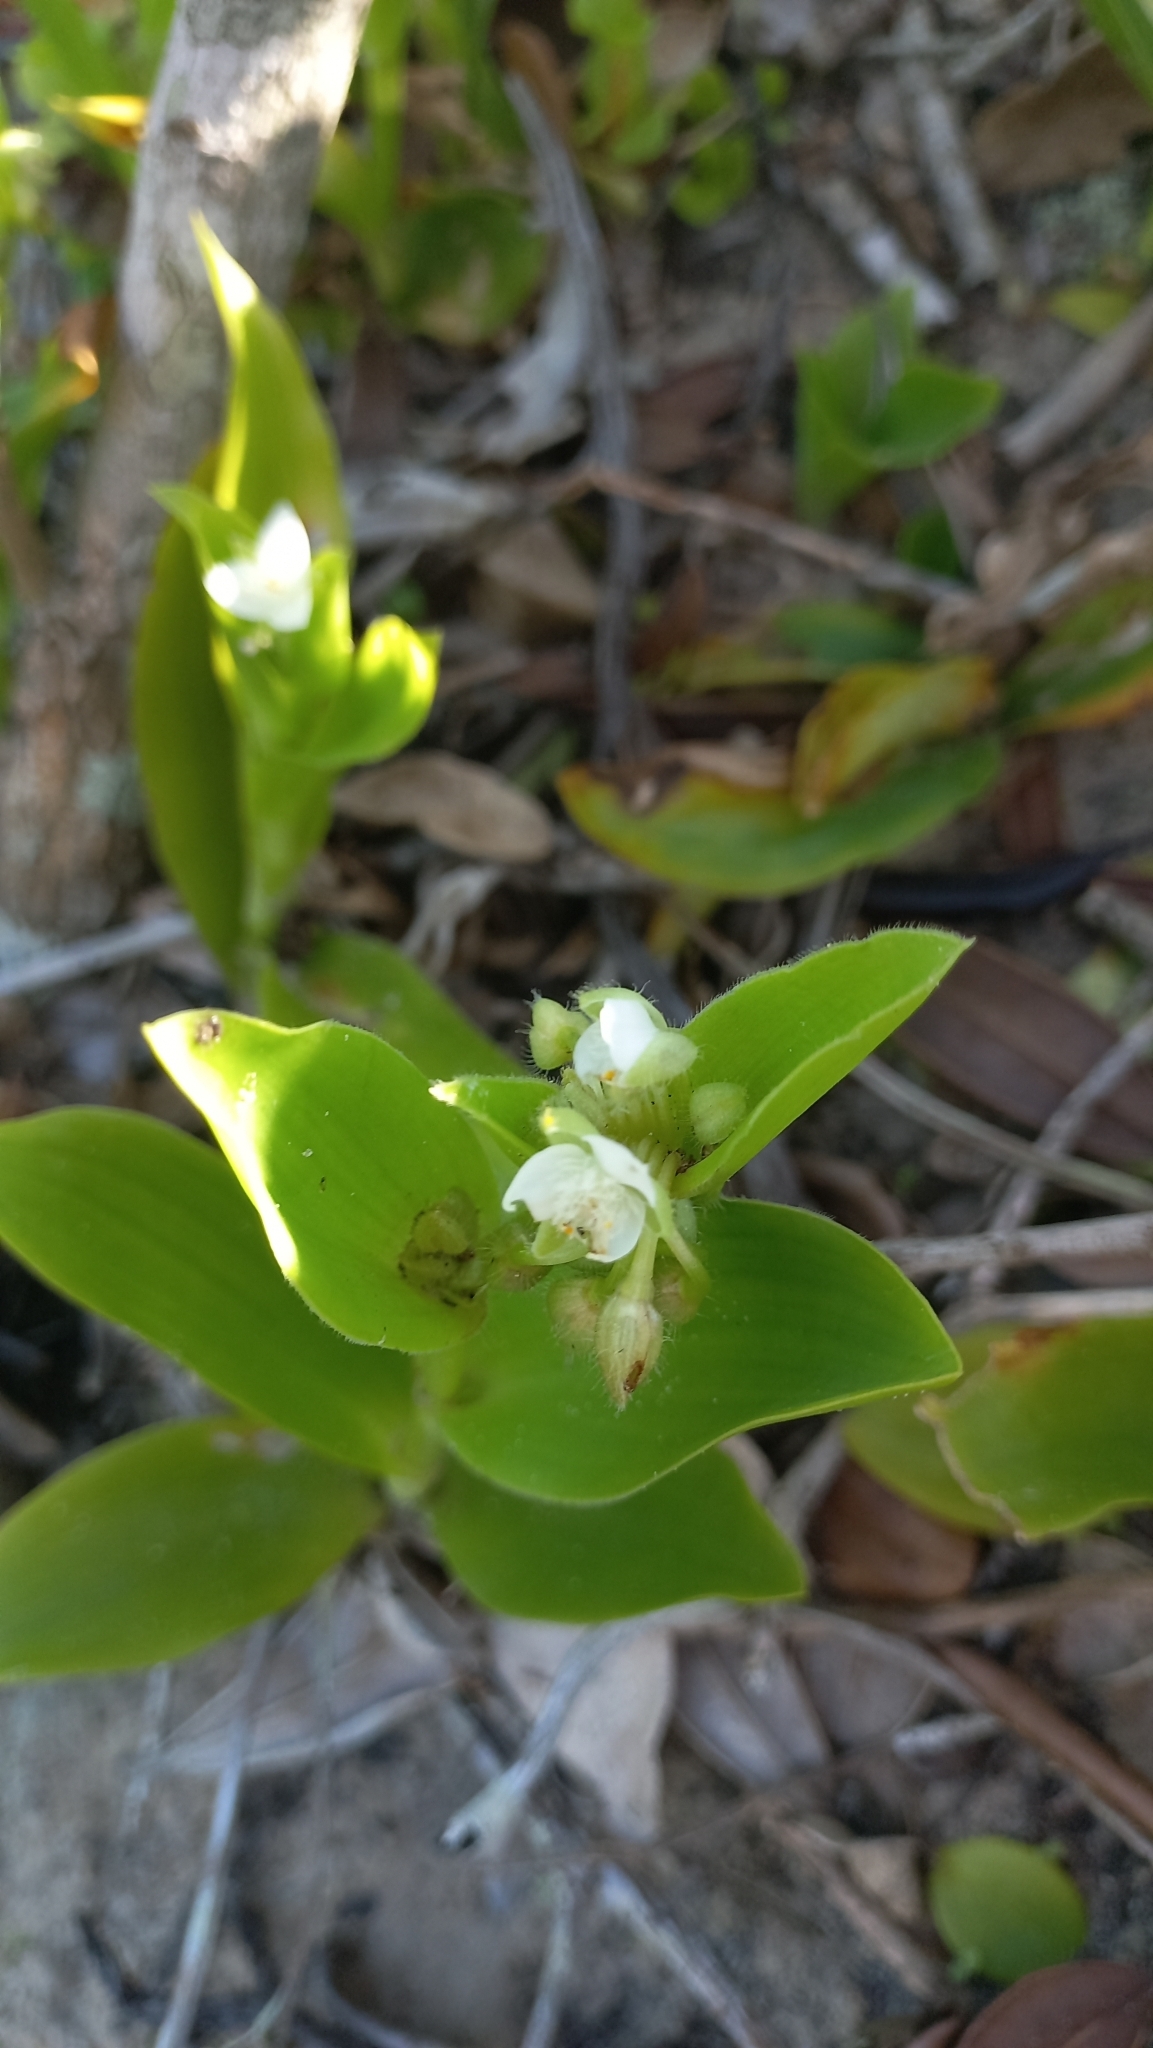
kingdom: Plantae
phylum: Tracheophyta
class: Liliopsida
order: Commelinales
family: Commelinaceae
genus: Tradescantia
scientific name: Tradescantia crassula
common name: Succulent spiderwort
